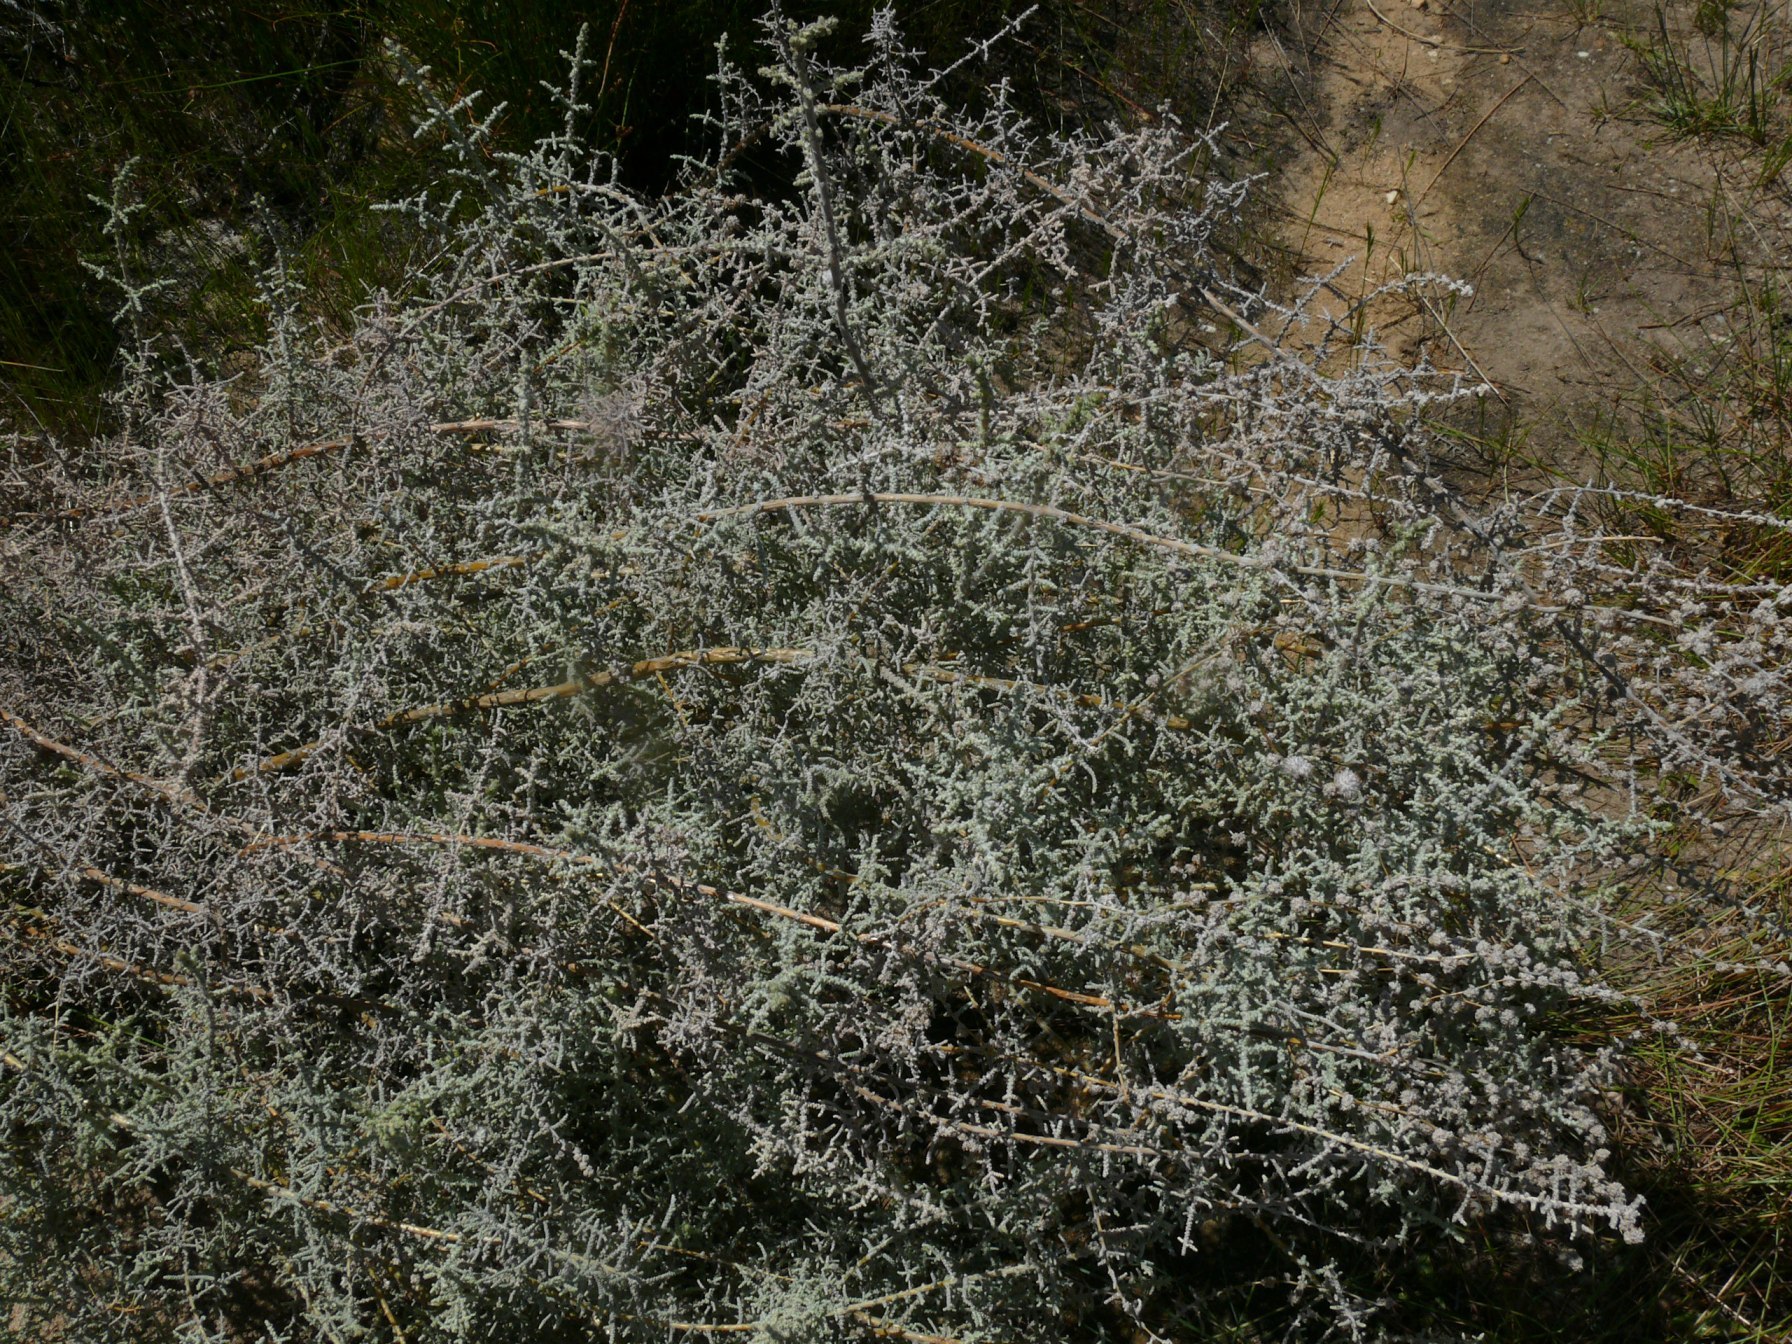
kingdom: Plantae
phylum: Tracheophyta
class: Magnoliopsida
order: Asterales
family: Asteraceae
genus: Seriphium
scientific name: Seriphium plumosum
